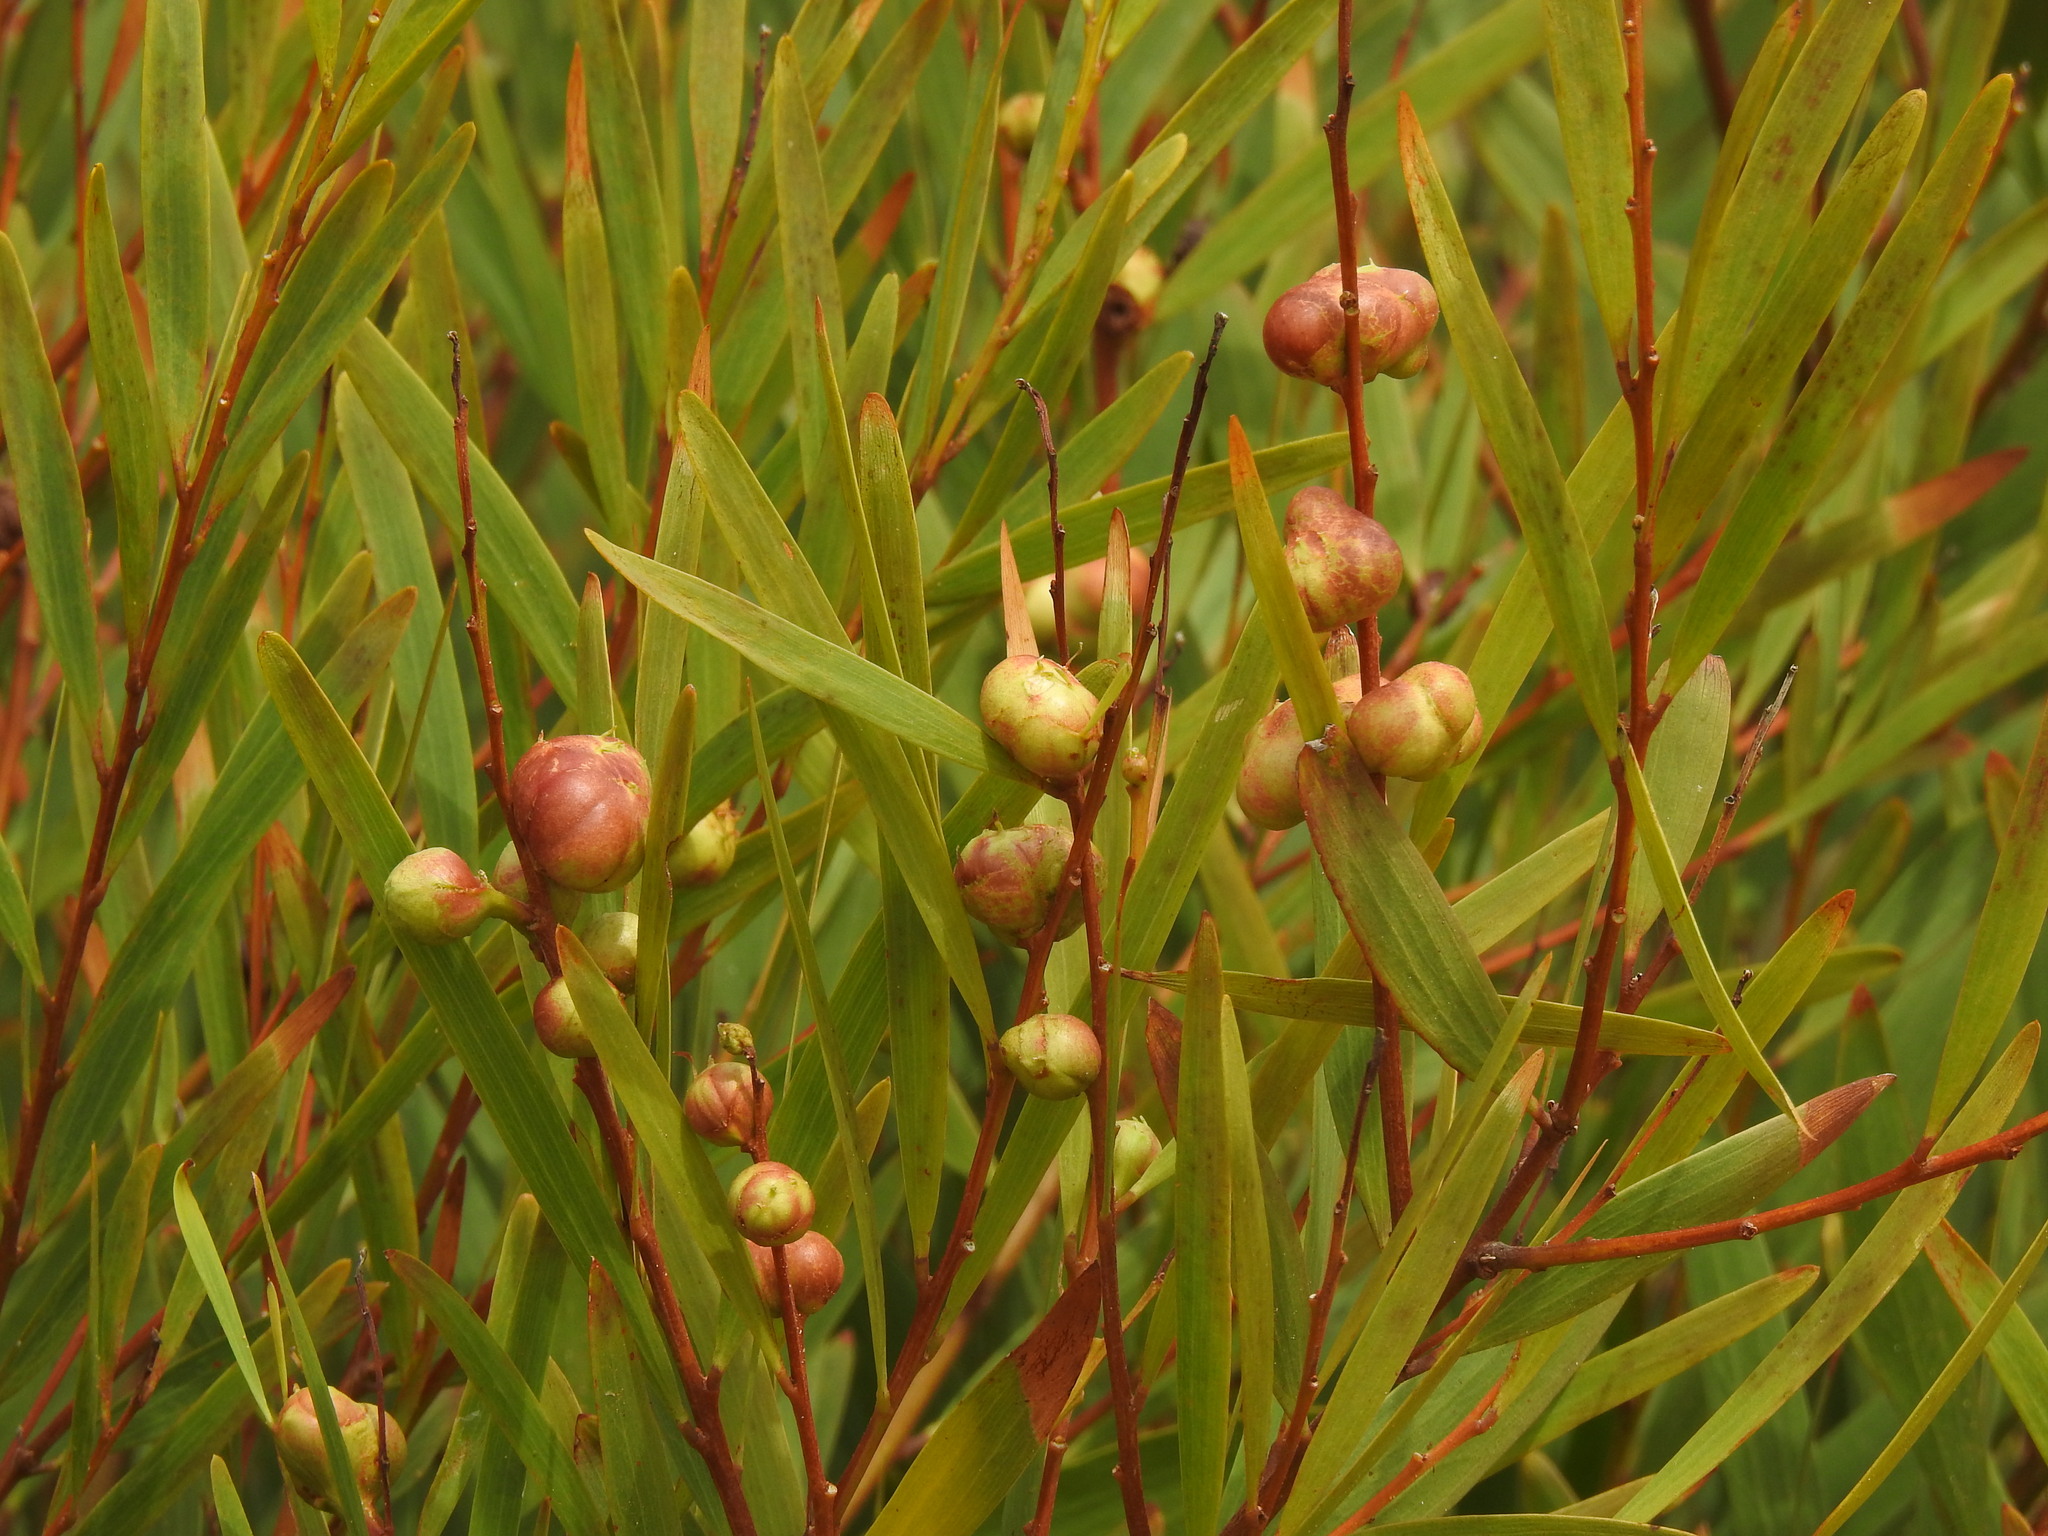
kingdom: Animalia
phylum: Arthropoda
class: Insecta
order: Hymenoptera
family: Pteromalidae
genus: Trichilogaster
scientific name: Trichilogaster acaciaelongifoliae
